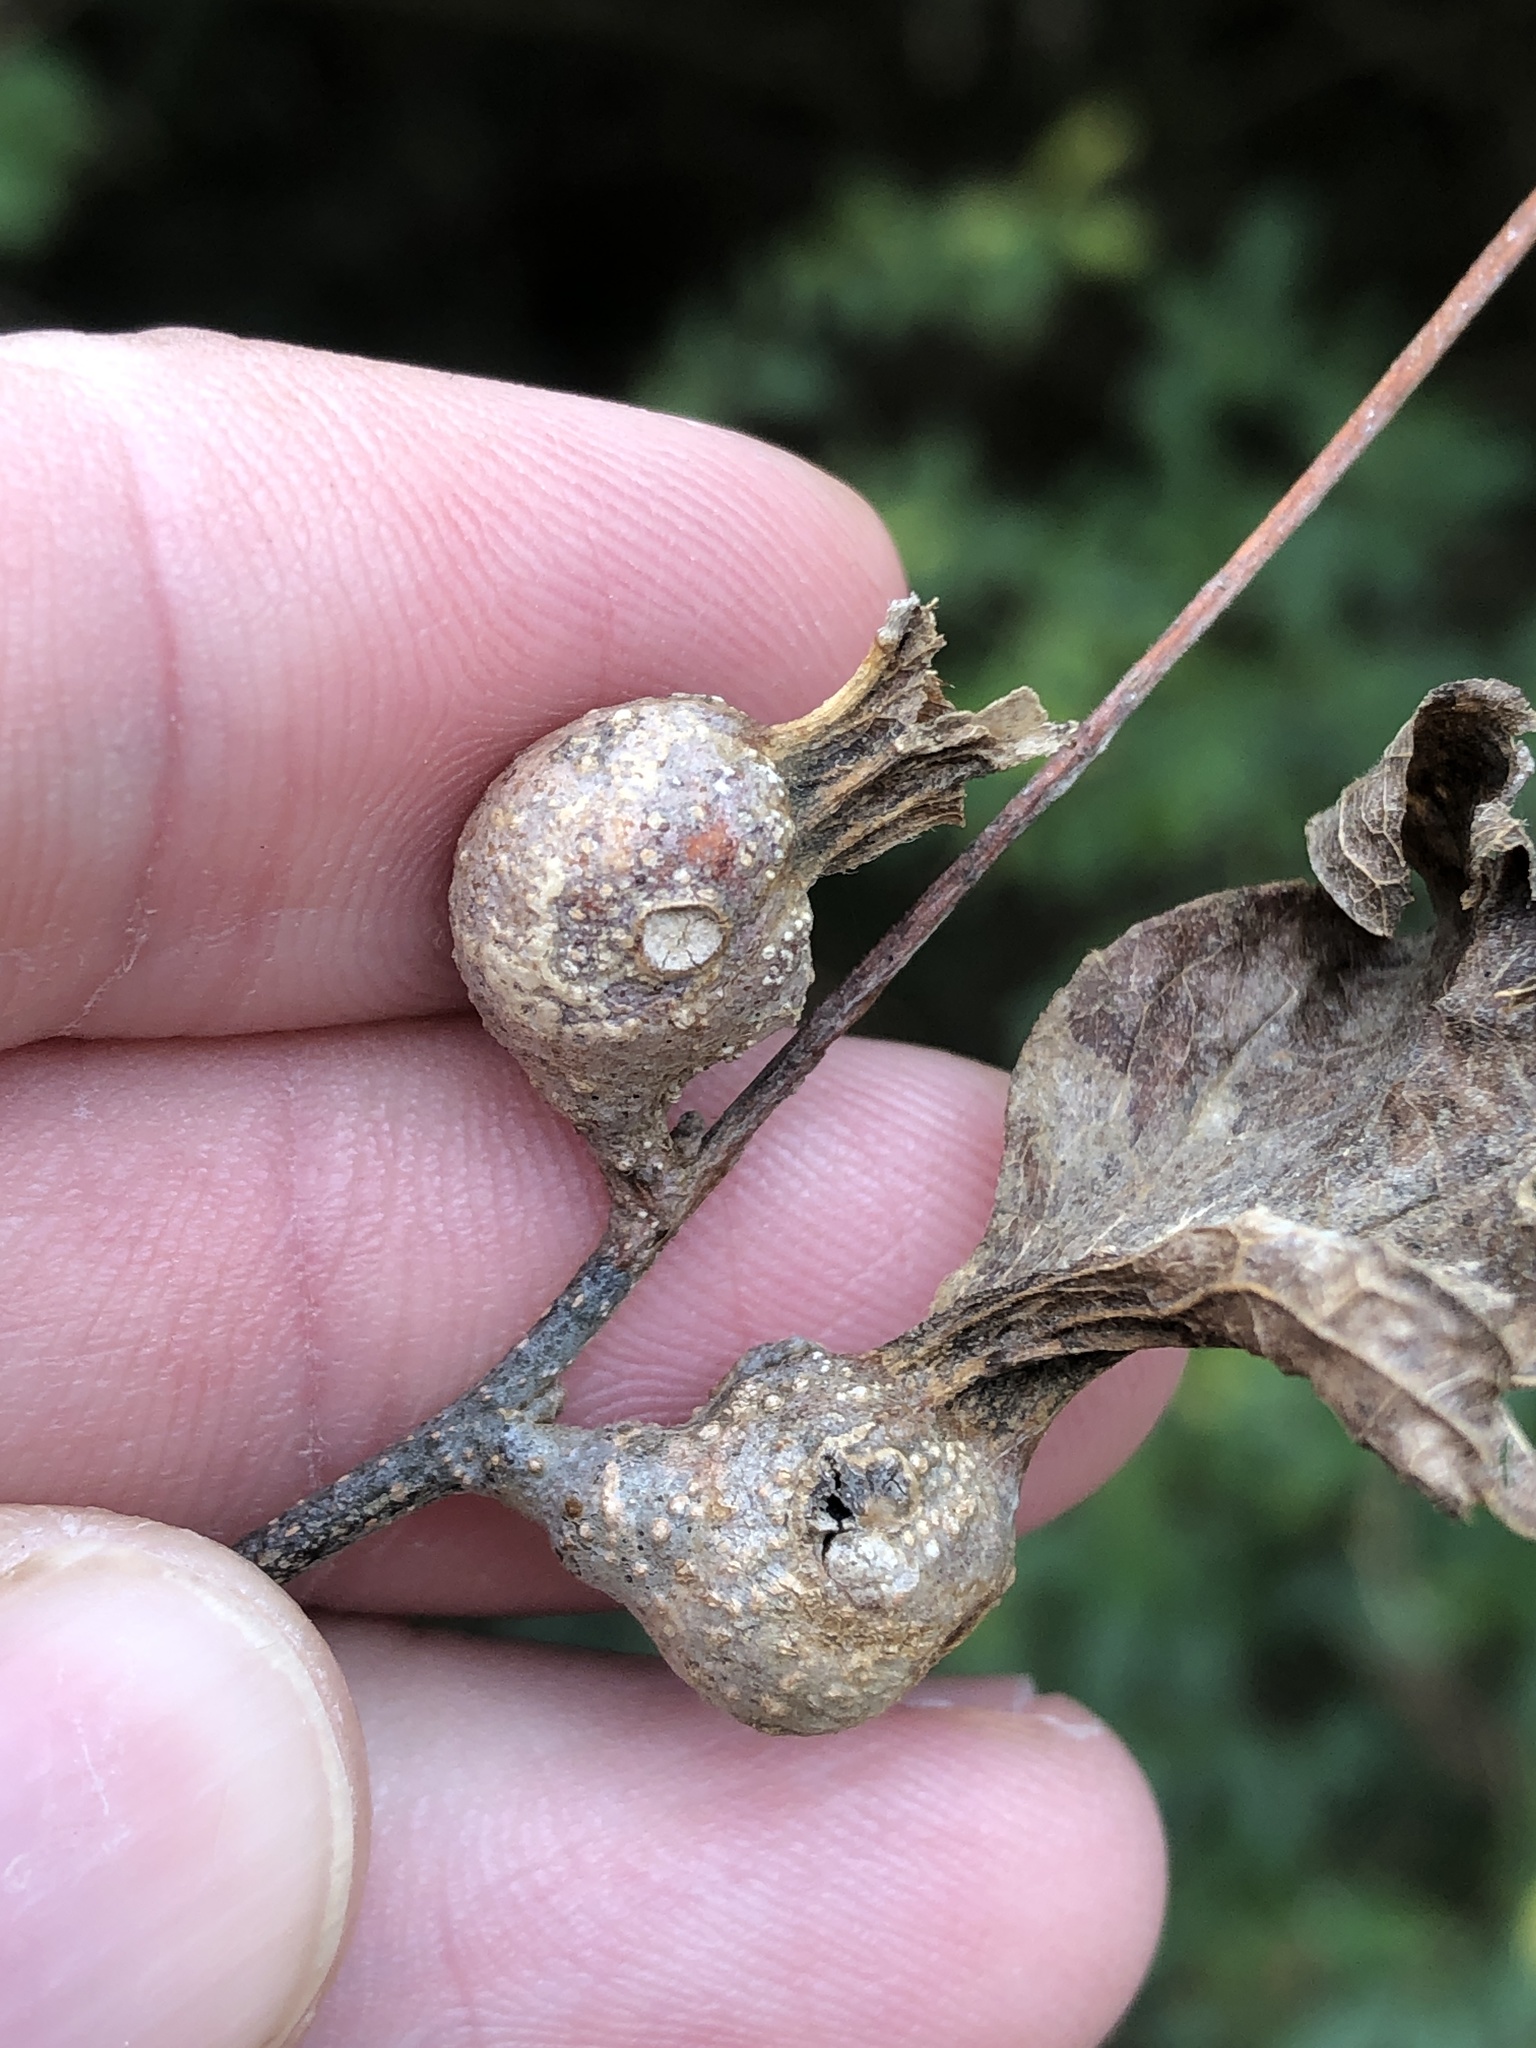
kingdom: Animalia
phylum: Arthropoda
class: Insecta
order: Hemiptera
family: Aphalaridae
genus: Pachypsylla
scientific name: Pachypsylla venusta
